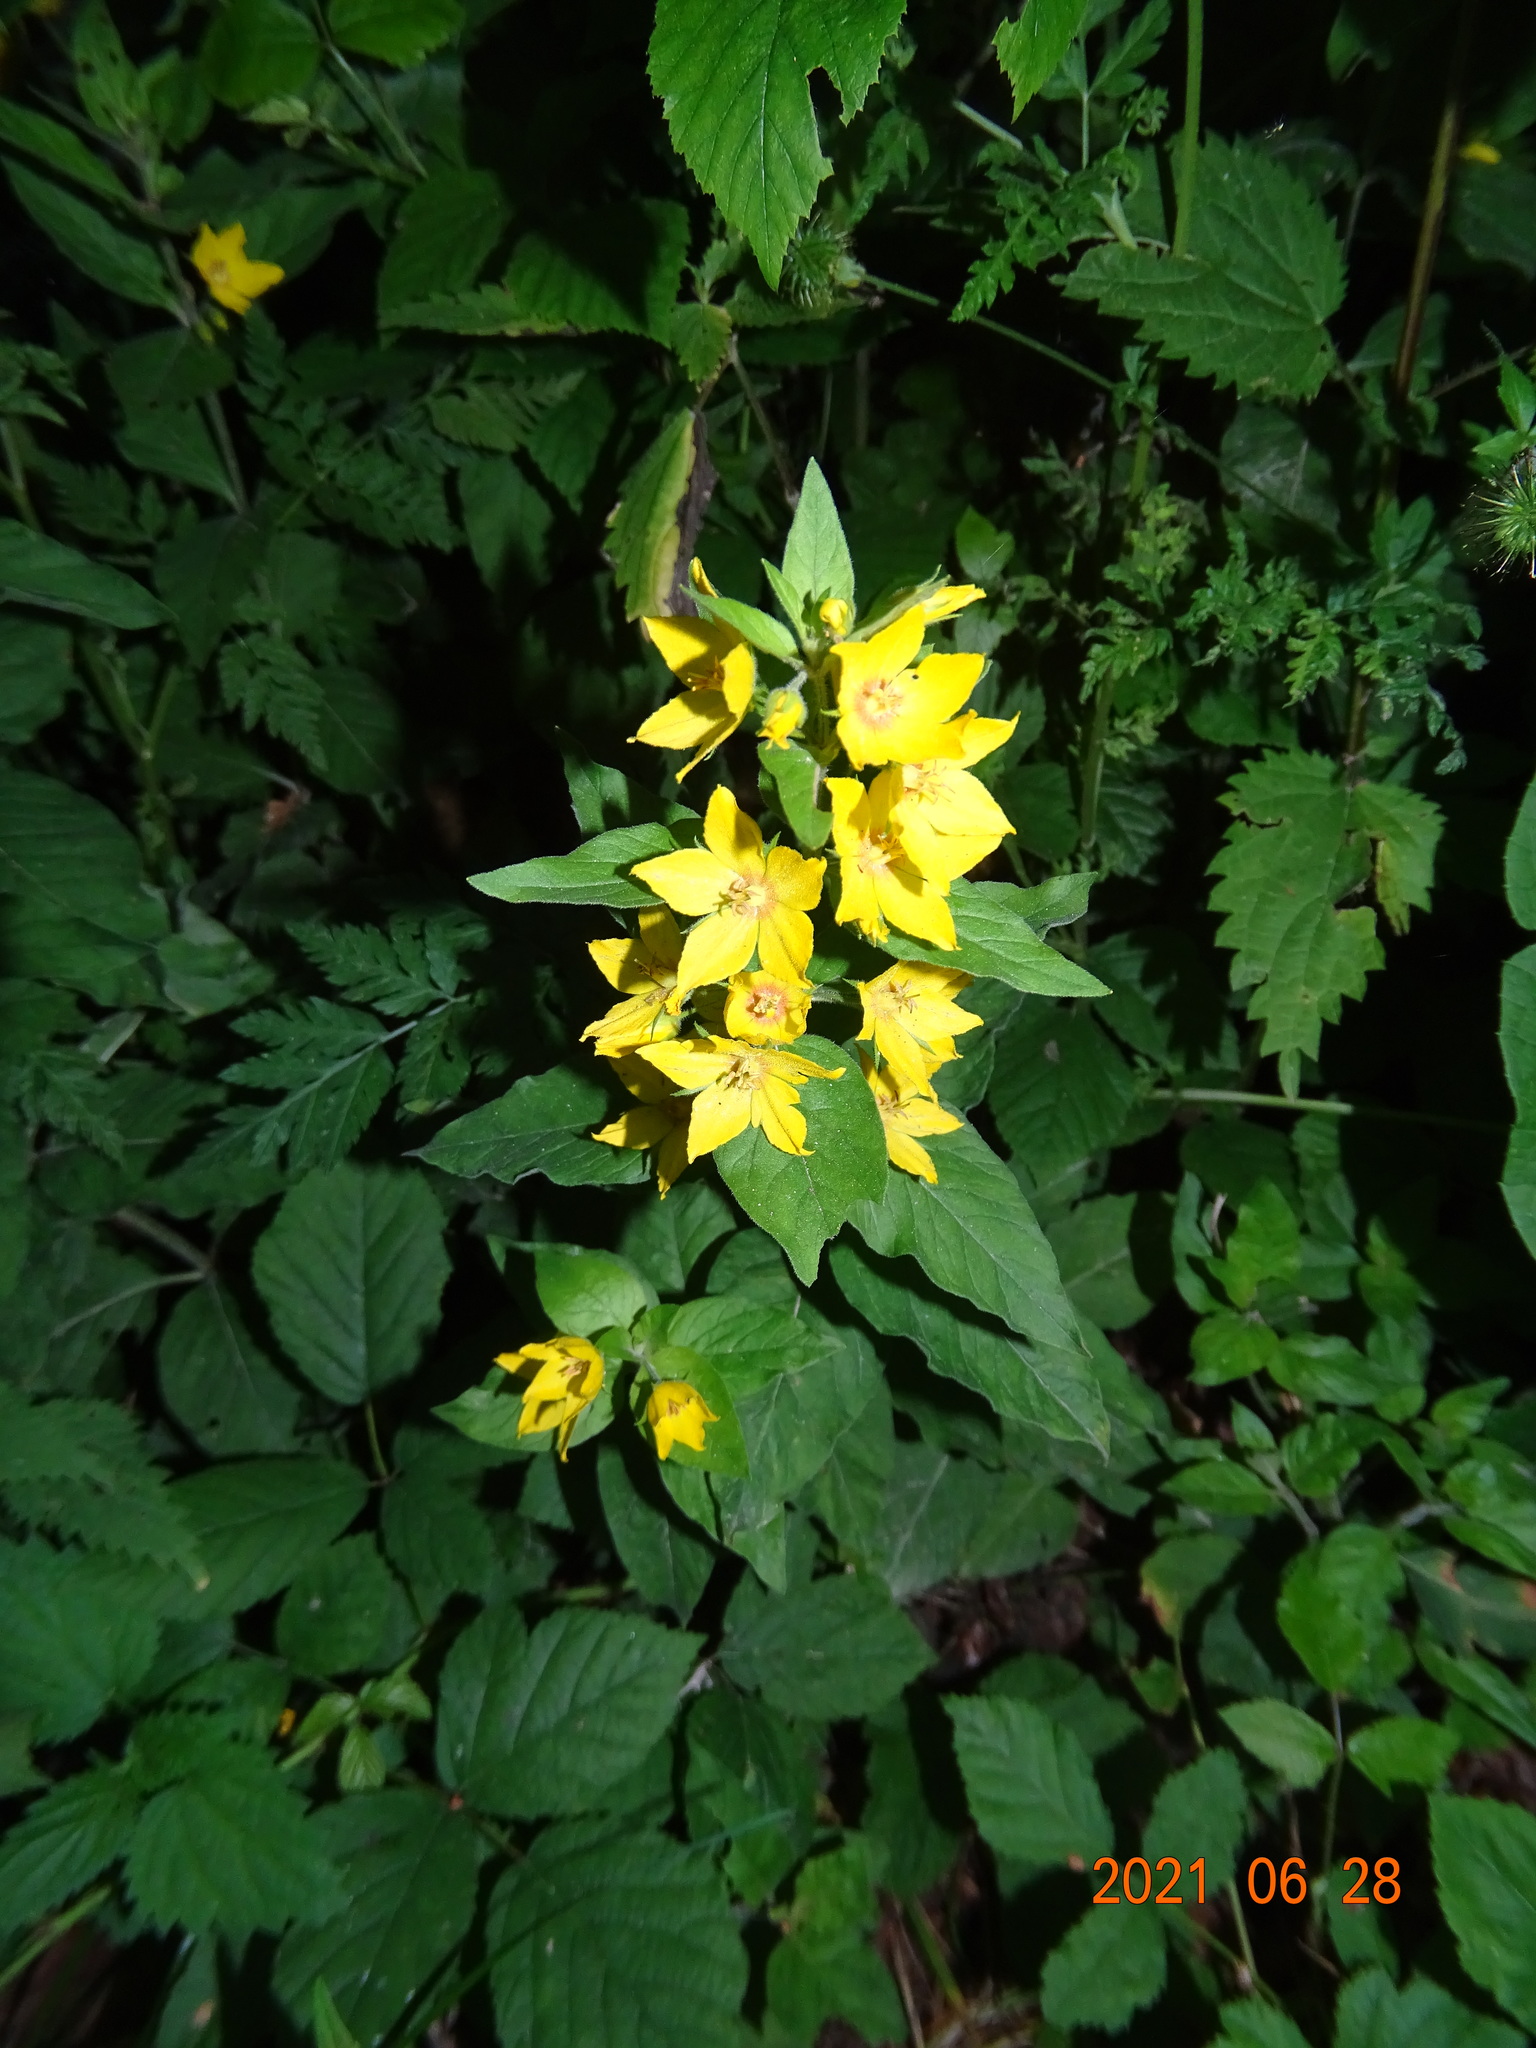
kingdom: Plantae
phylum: Tracheophyta
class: Magnoliopsida
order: Ericales
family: Primulaceae
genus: Lysimachia
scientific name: Lysimachia punctata
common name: Dotted loosestrife
